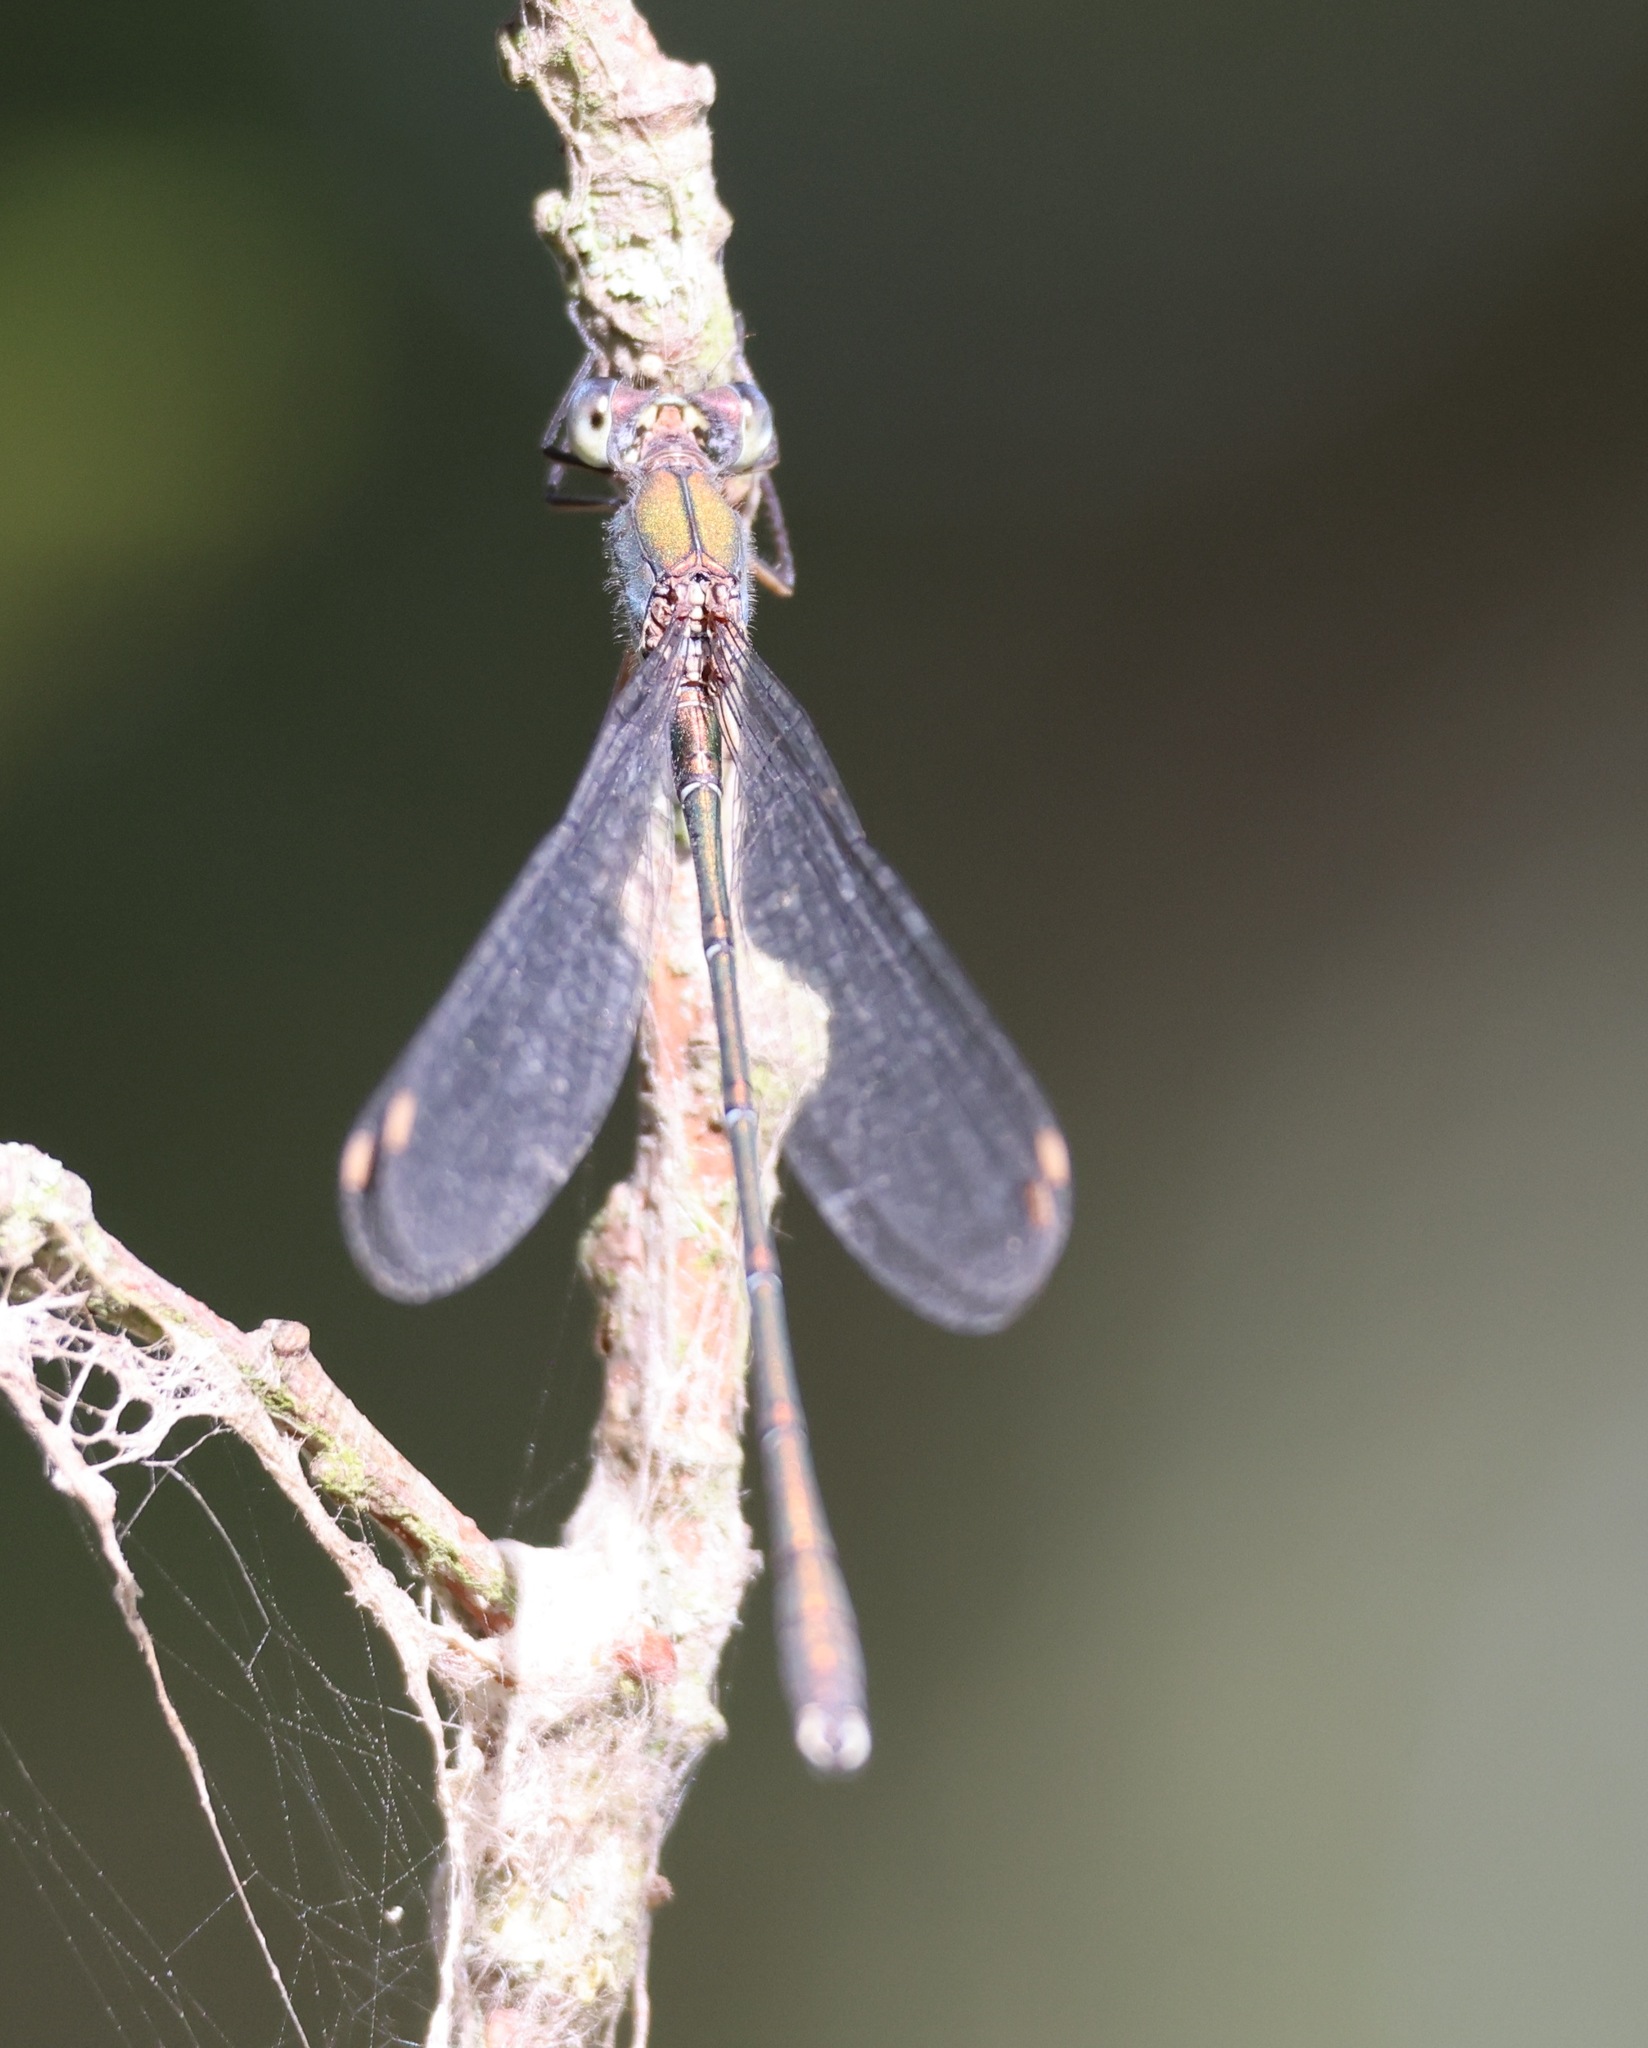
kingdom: Animalia
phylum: Arthropoda
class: Insecta
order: Odonata
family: Lestidae
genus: Chalcolestes
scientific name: Chalcolestes viridis
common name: Green emerald damselfly
